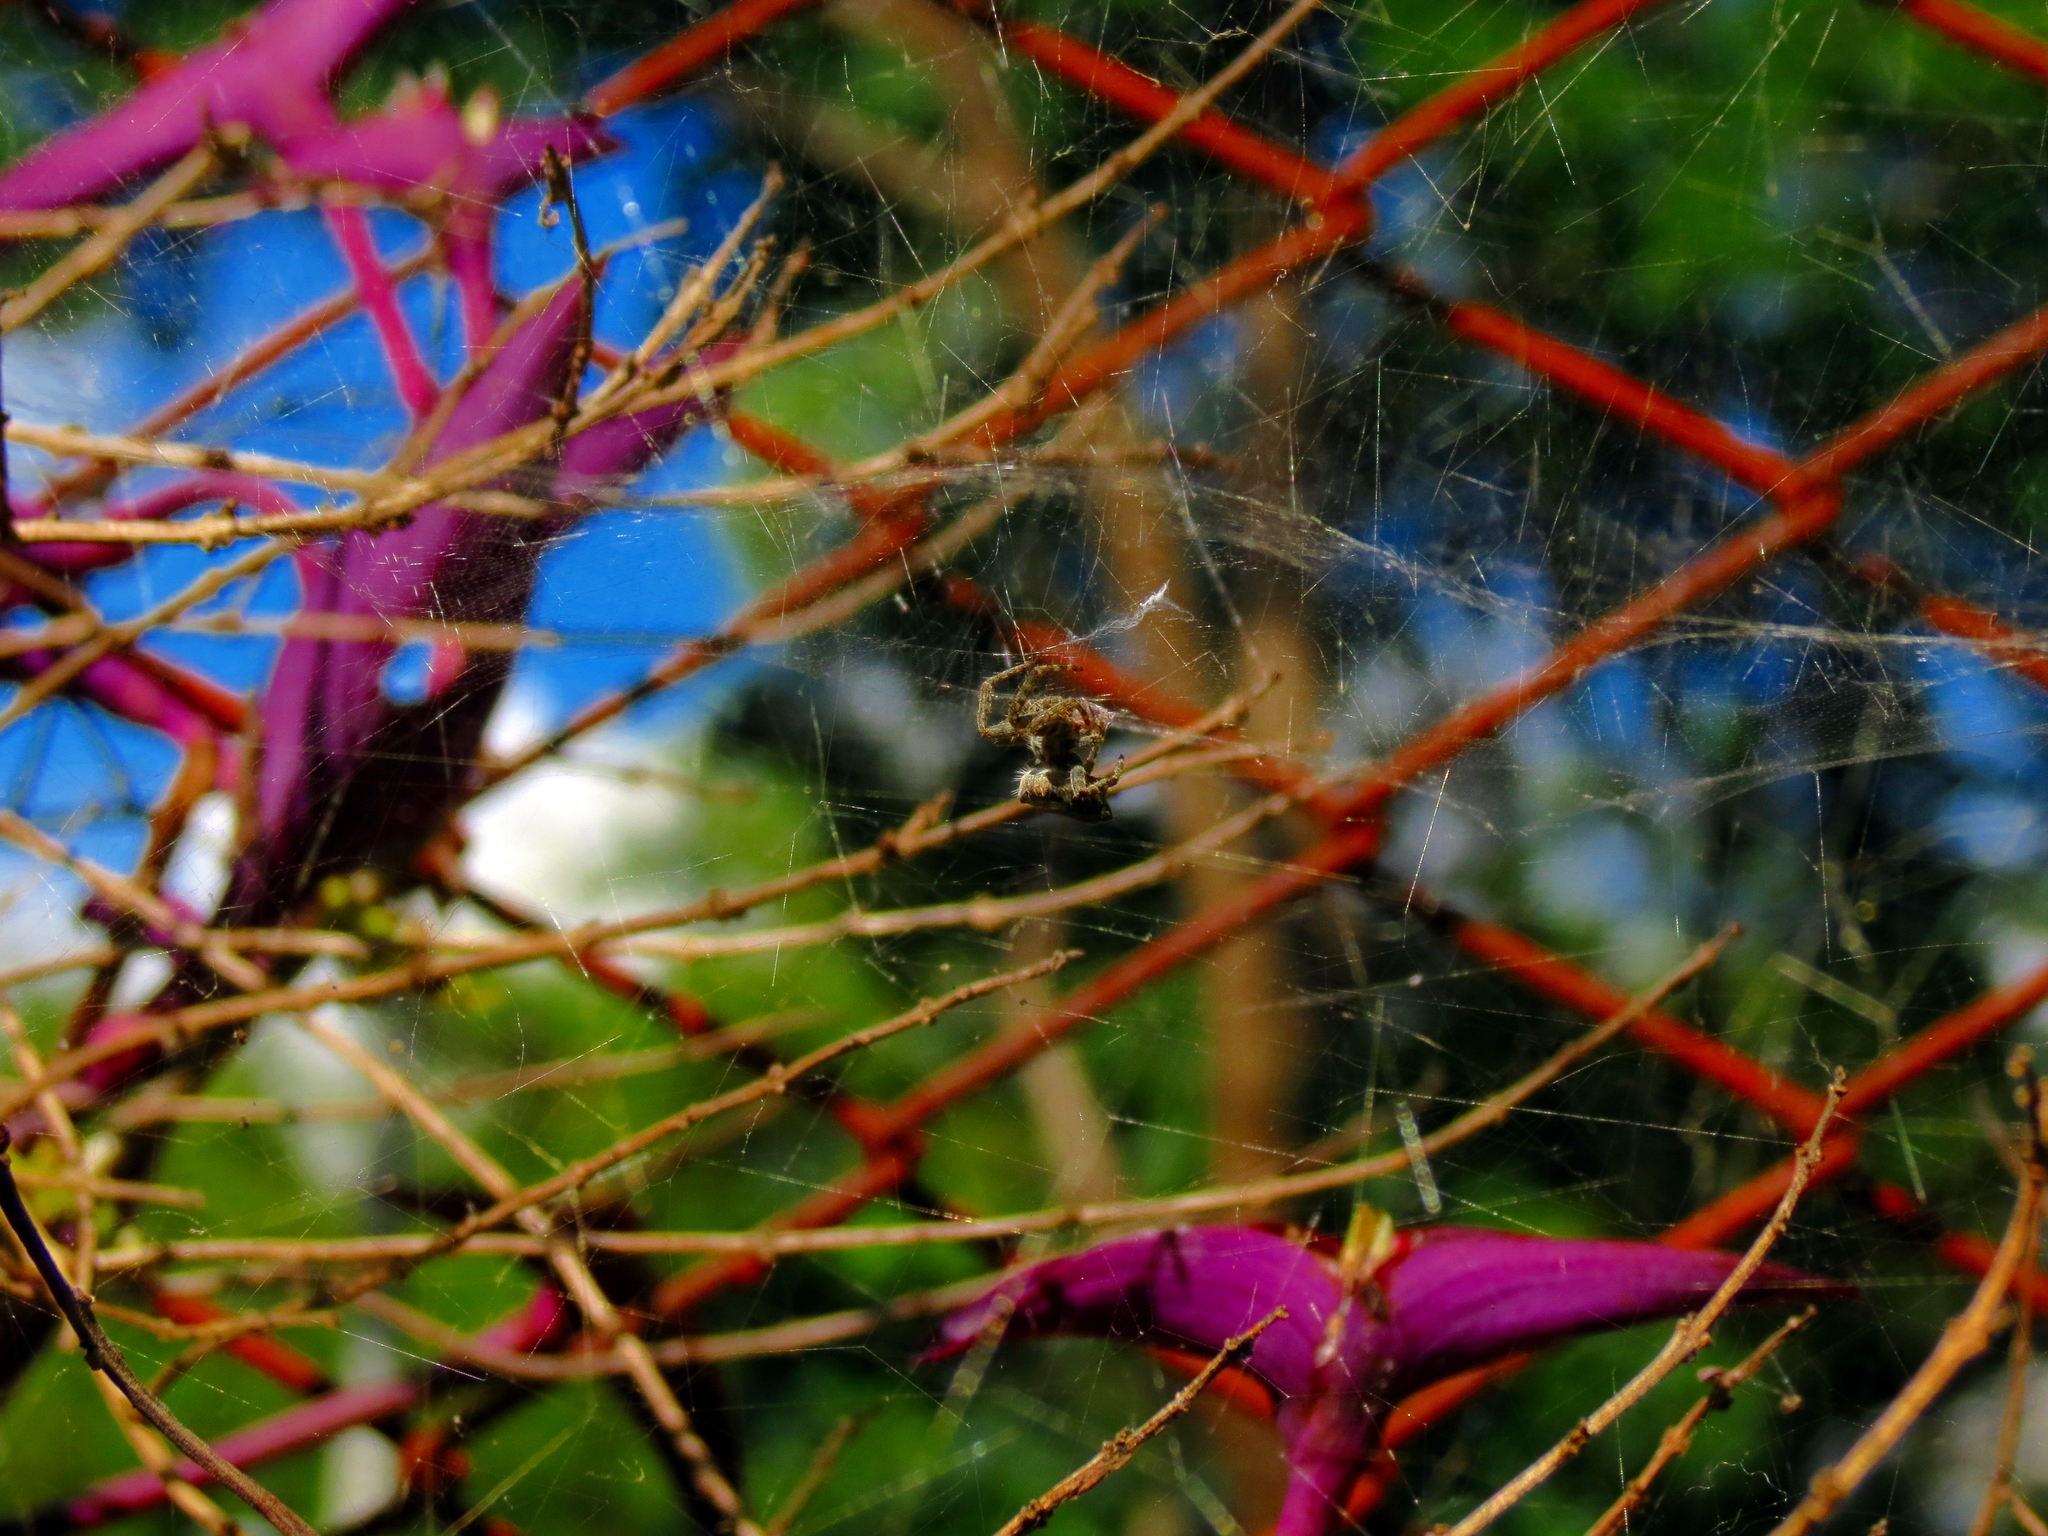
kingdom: Animalia
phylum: Arthropoda
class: Arachnida
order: Araneae
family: Araneidae
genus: Cyrtophora
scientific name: Cyrtophora citricola
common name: Orb weavers
